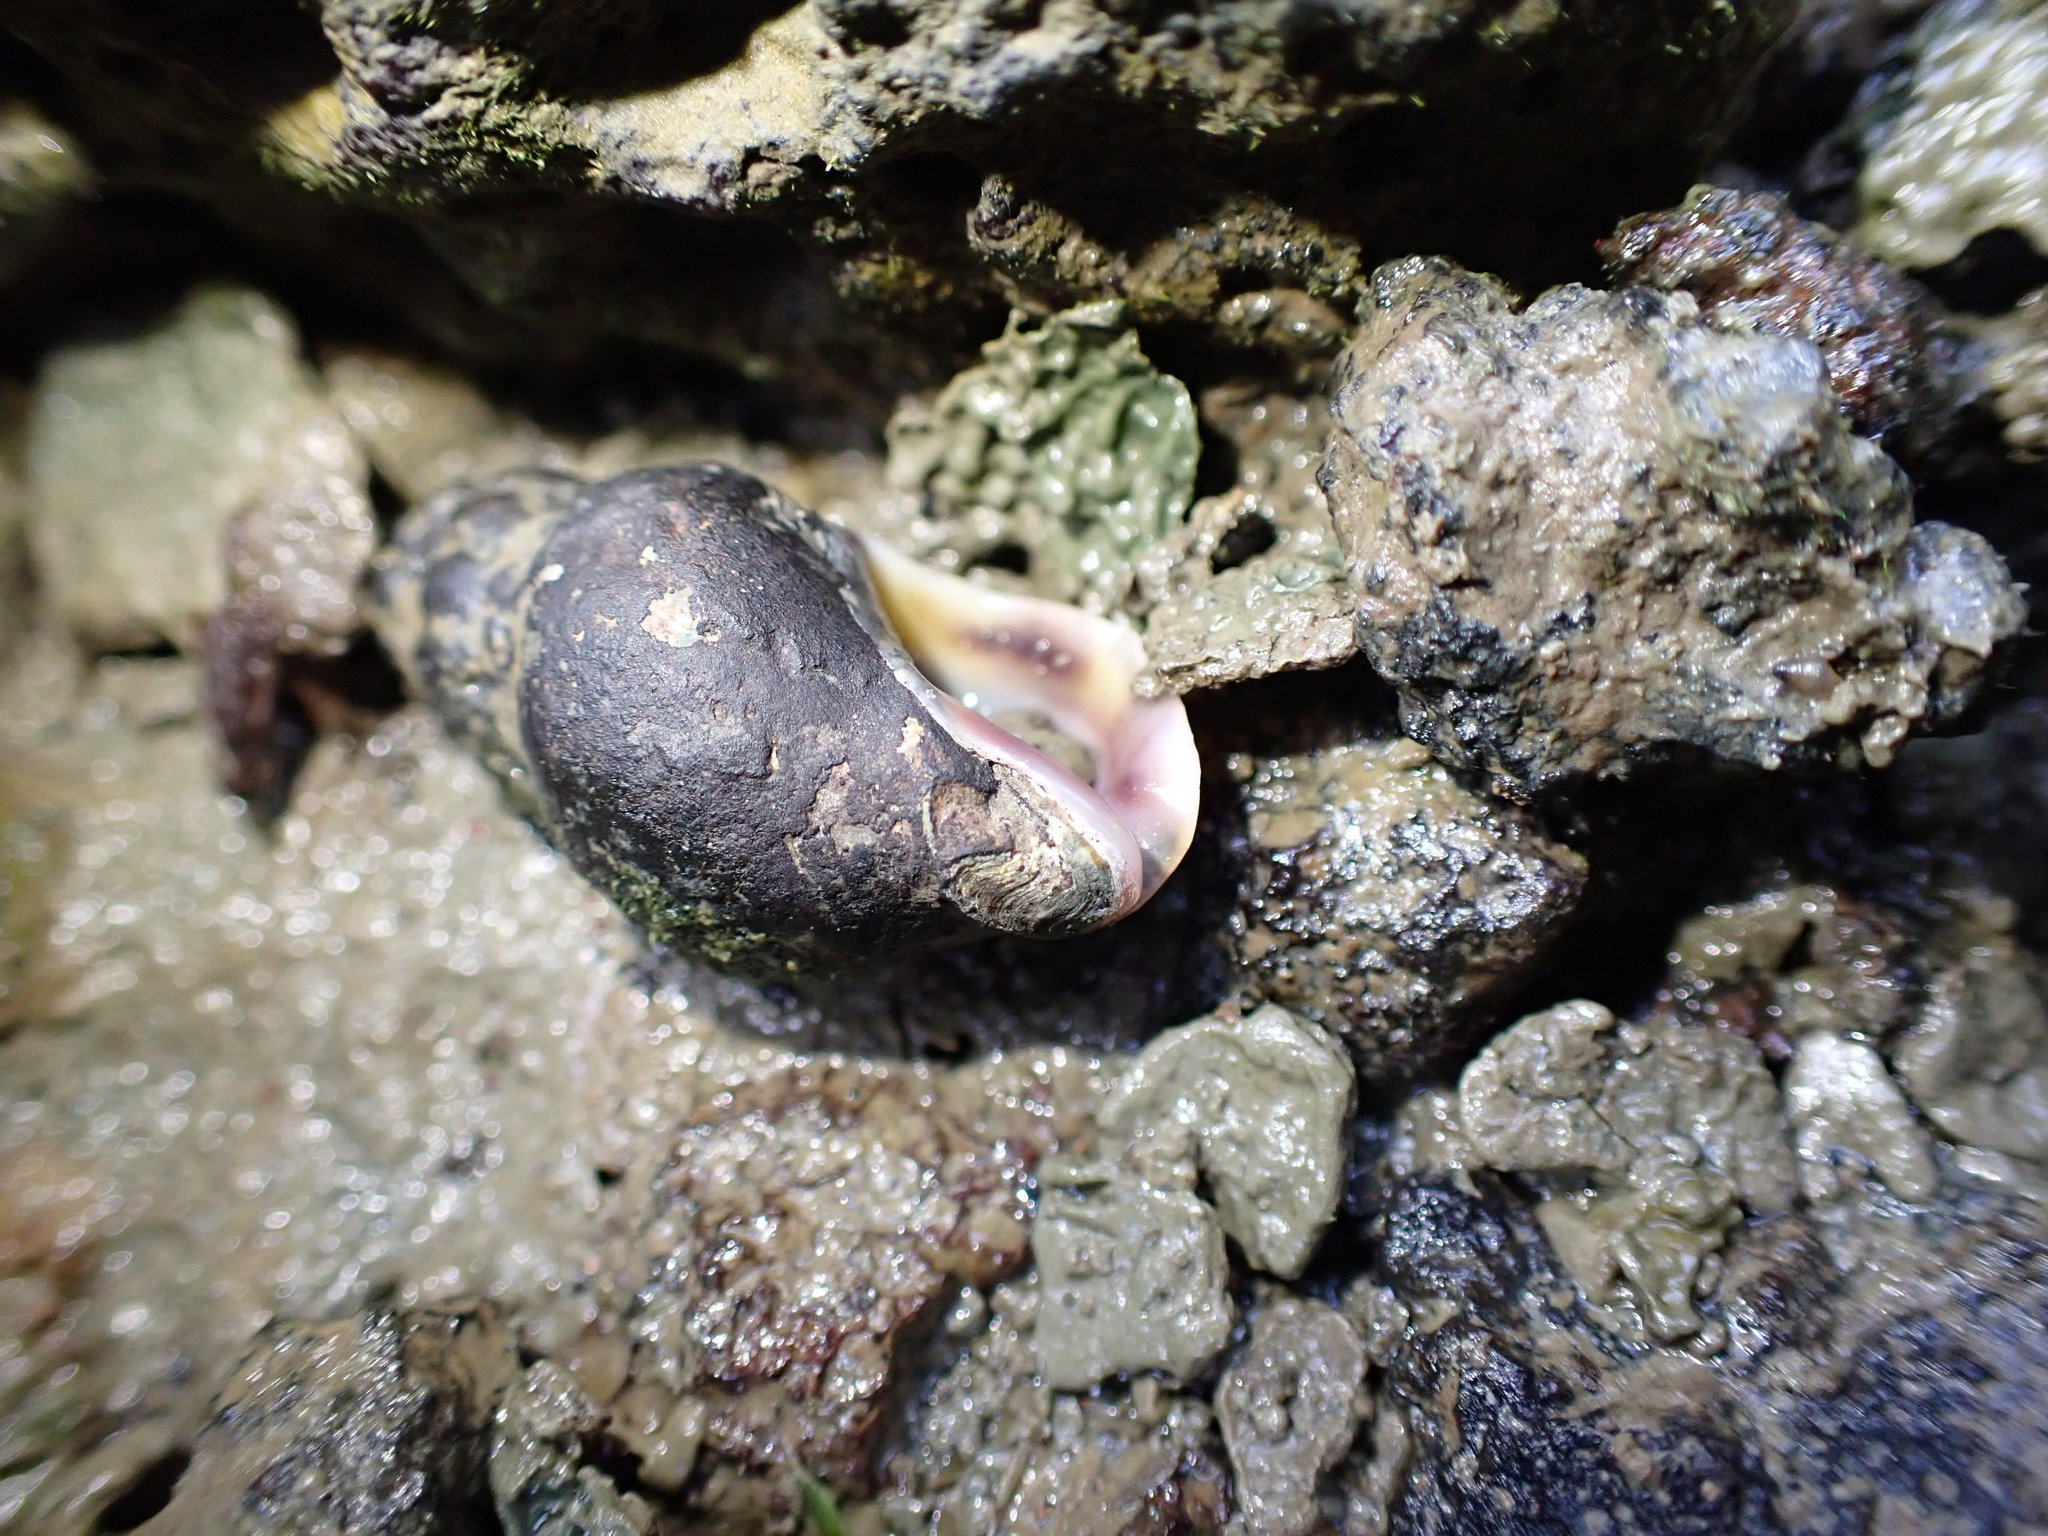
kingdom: Animalia
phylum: Mollusca
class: Gastropoda
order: Neogastropoda
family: Cominellidae
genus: Cominella
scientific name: Cominella glandiformis
